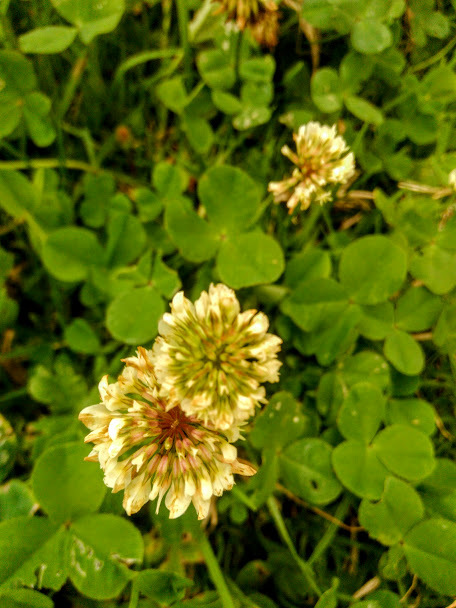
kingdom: Plantae
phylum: Tracheophyta
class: Magnoliopsida
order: Fabales
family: Fabaceae
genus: Trifolium
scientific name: Trifolium repens
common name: White clover
